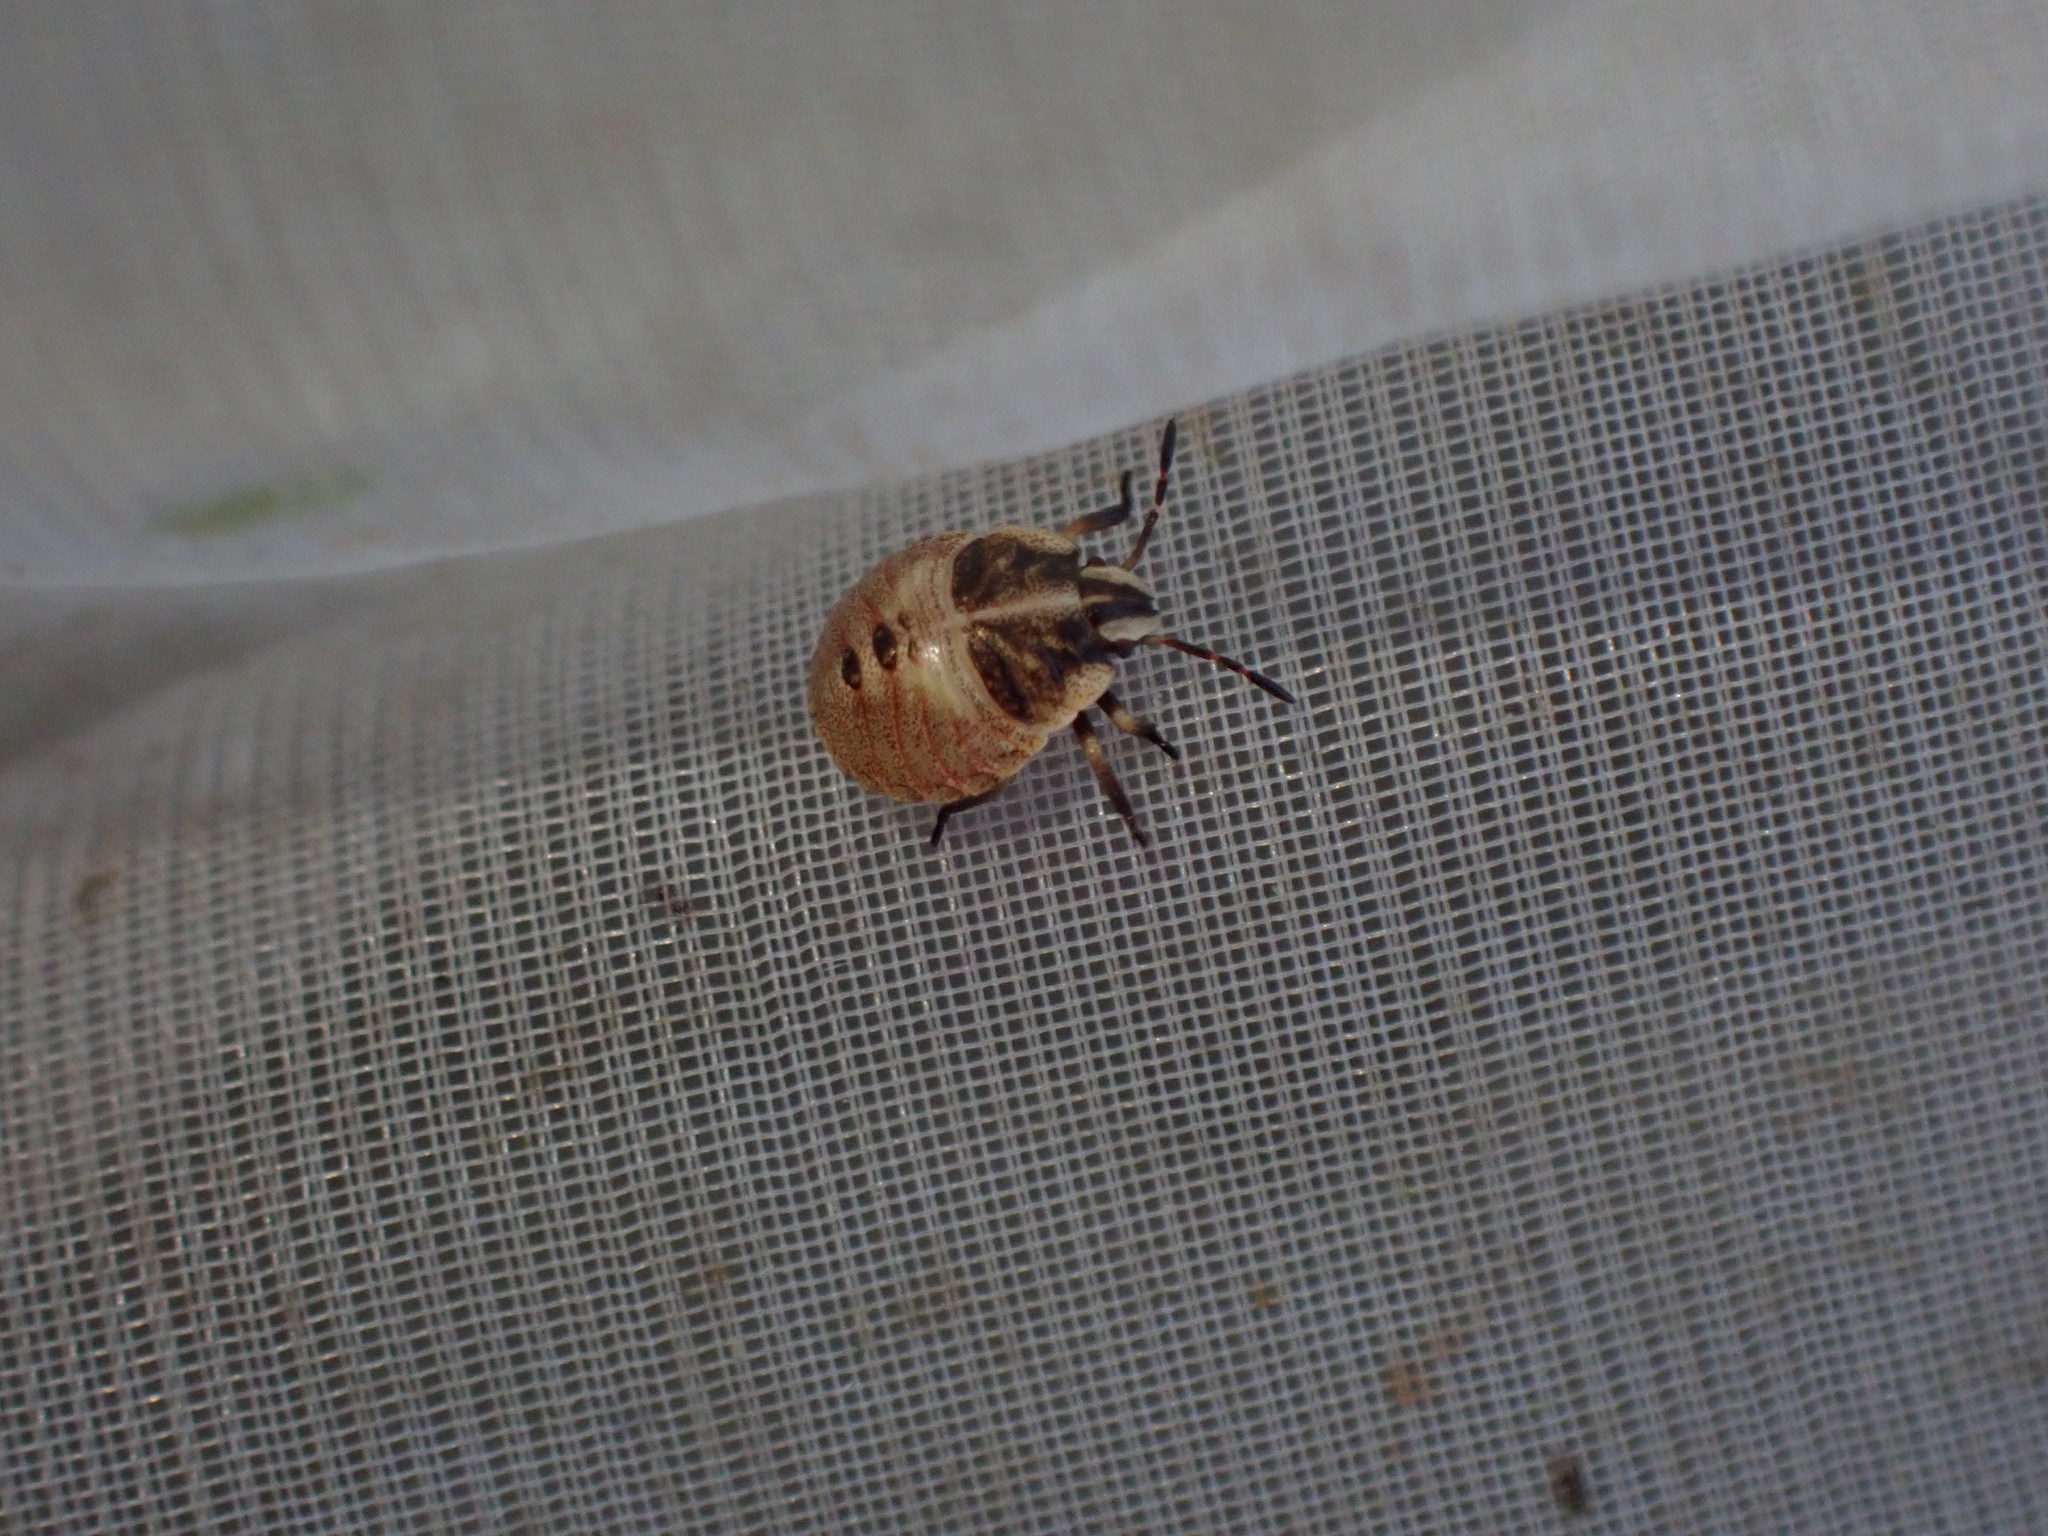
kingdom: Animalia
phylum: Arthropoda
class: Insecta
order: Hemiptera
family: Pentatomidae
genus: Graphosoma
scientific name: Graphosoma italicum
